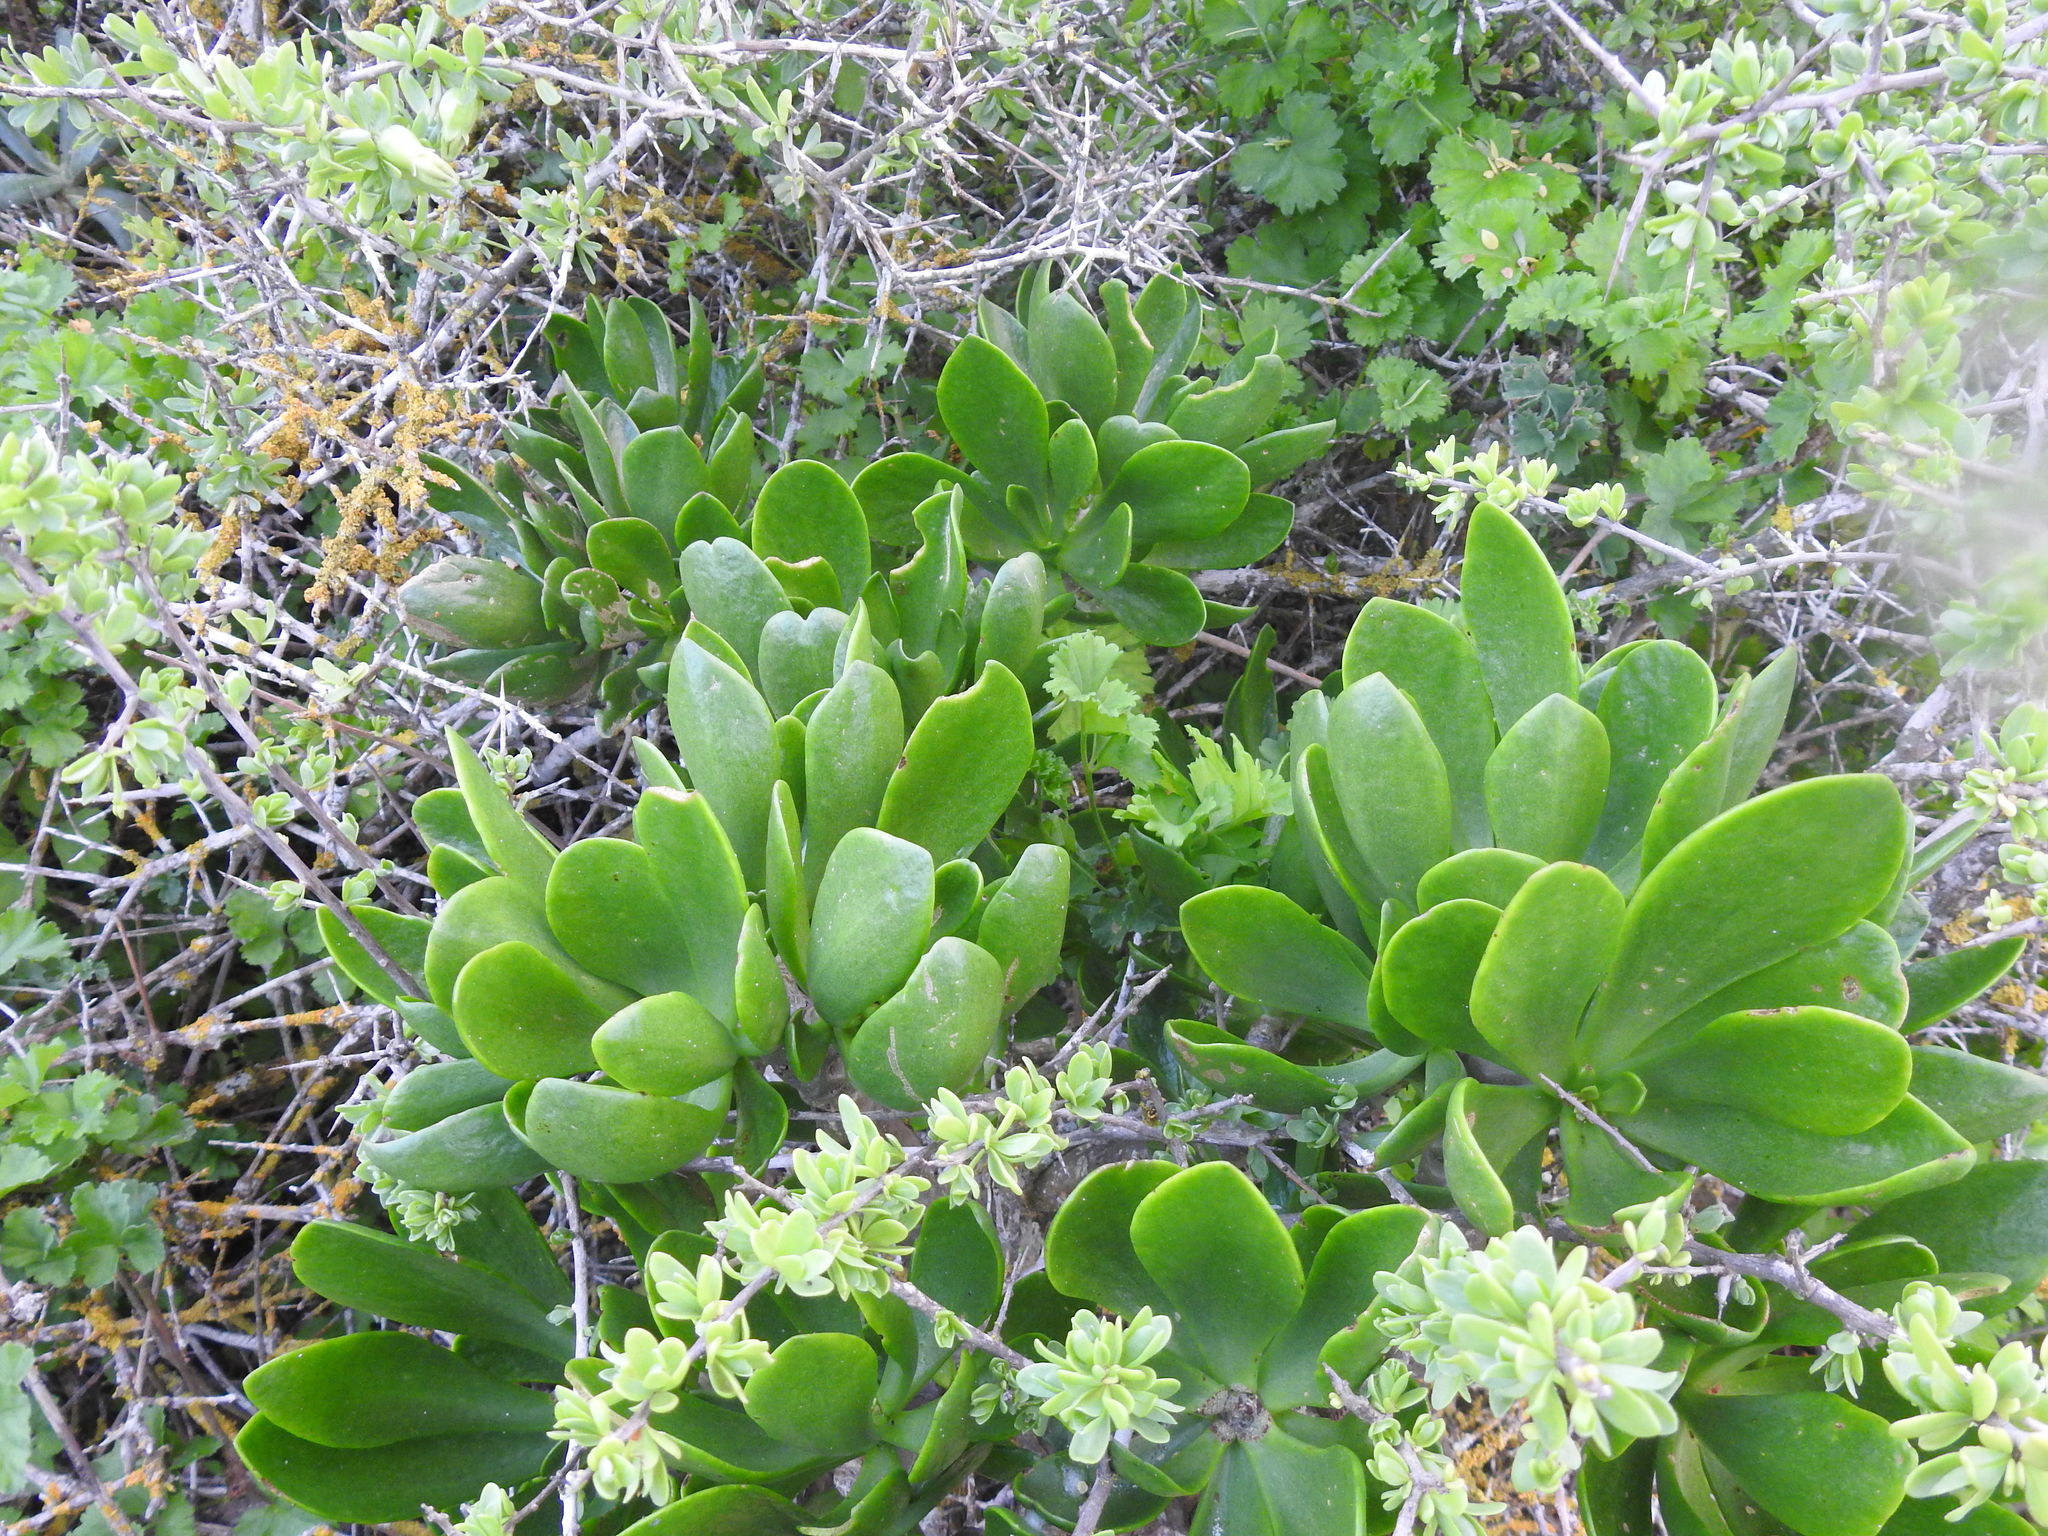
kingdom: Plantae
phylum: Tracheophyta
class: Magnoliopsida
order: Saxifragales
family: Crassulaceae
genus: Tylecodon
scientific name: Tylecodon paniculatus
